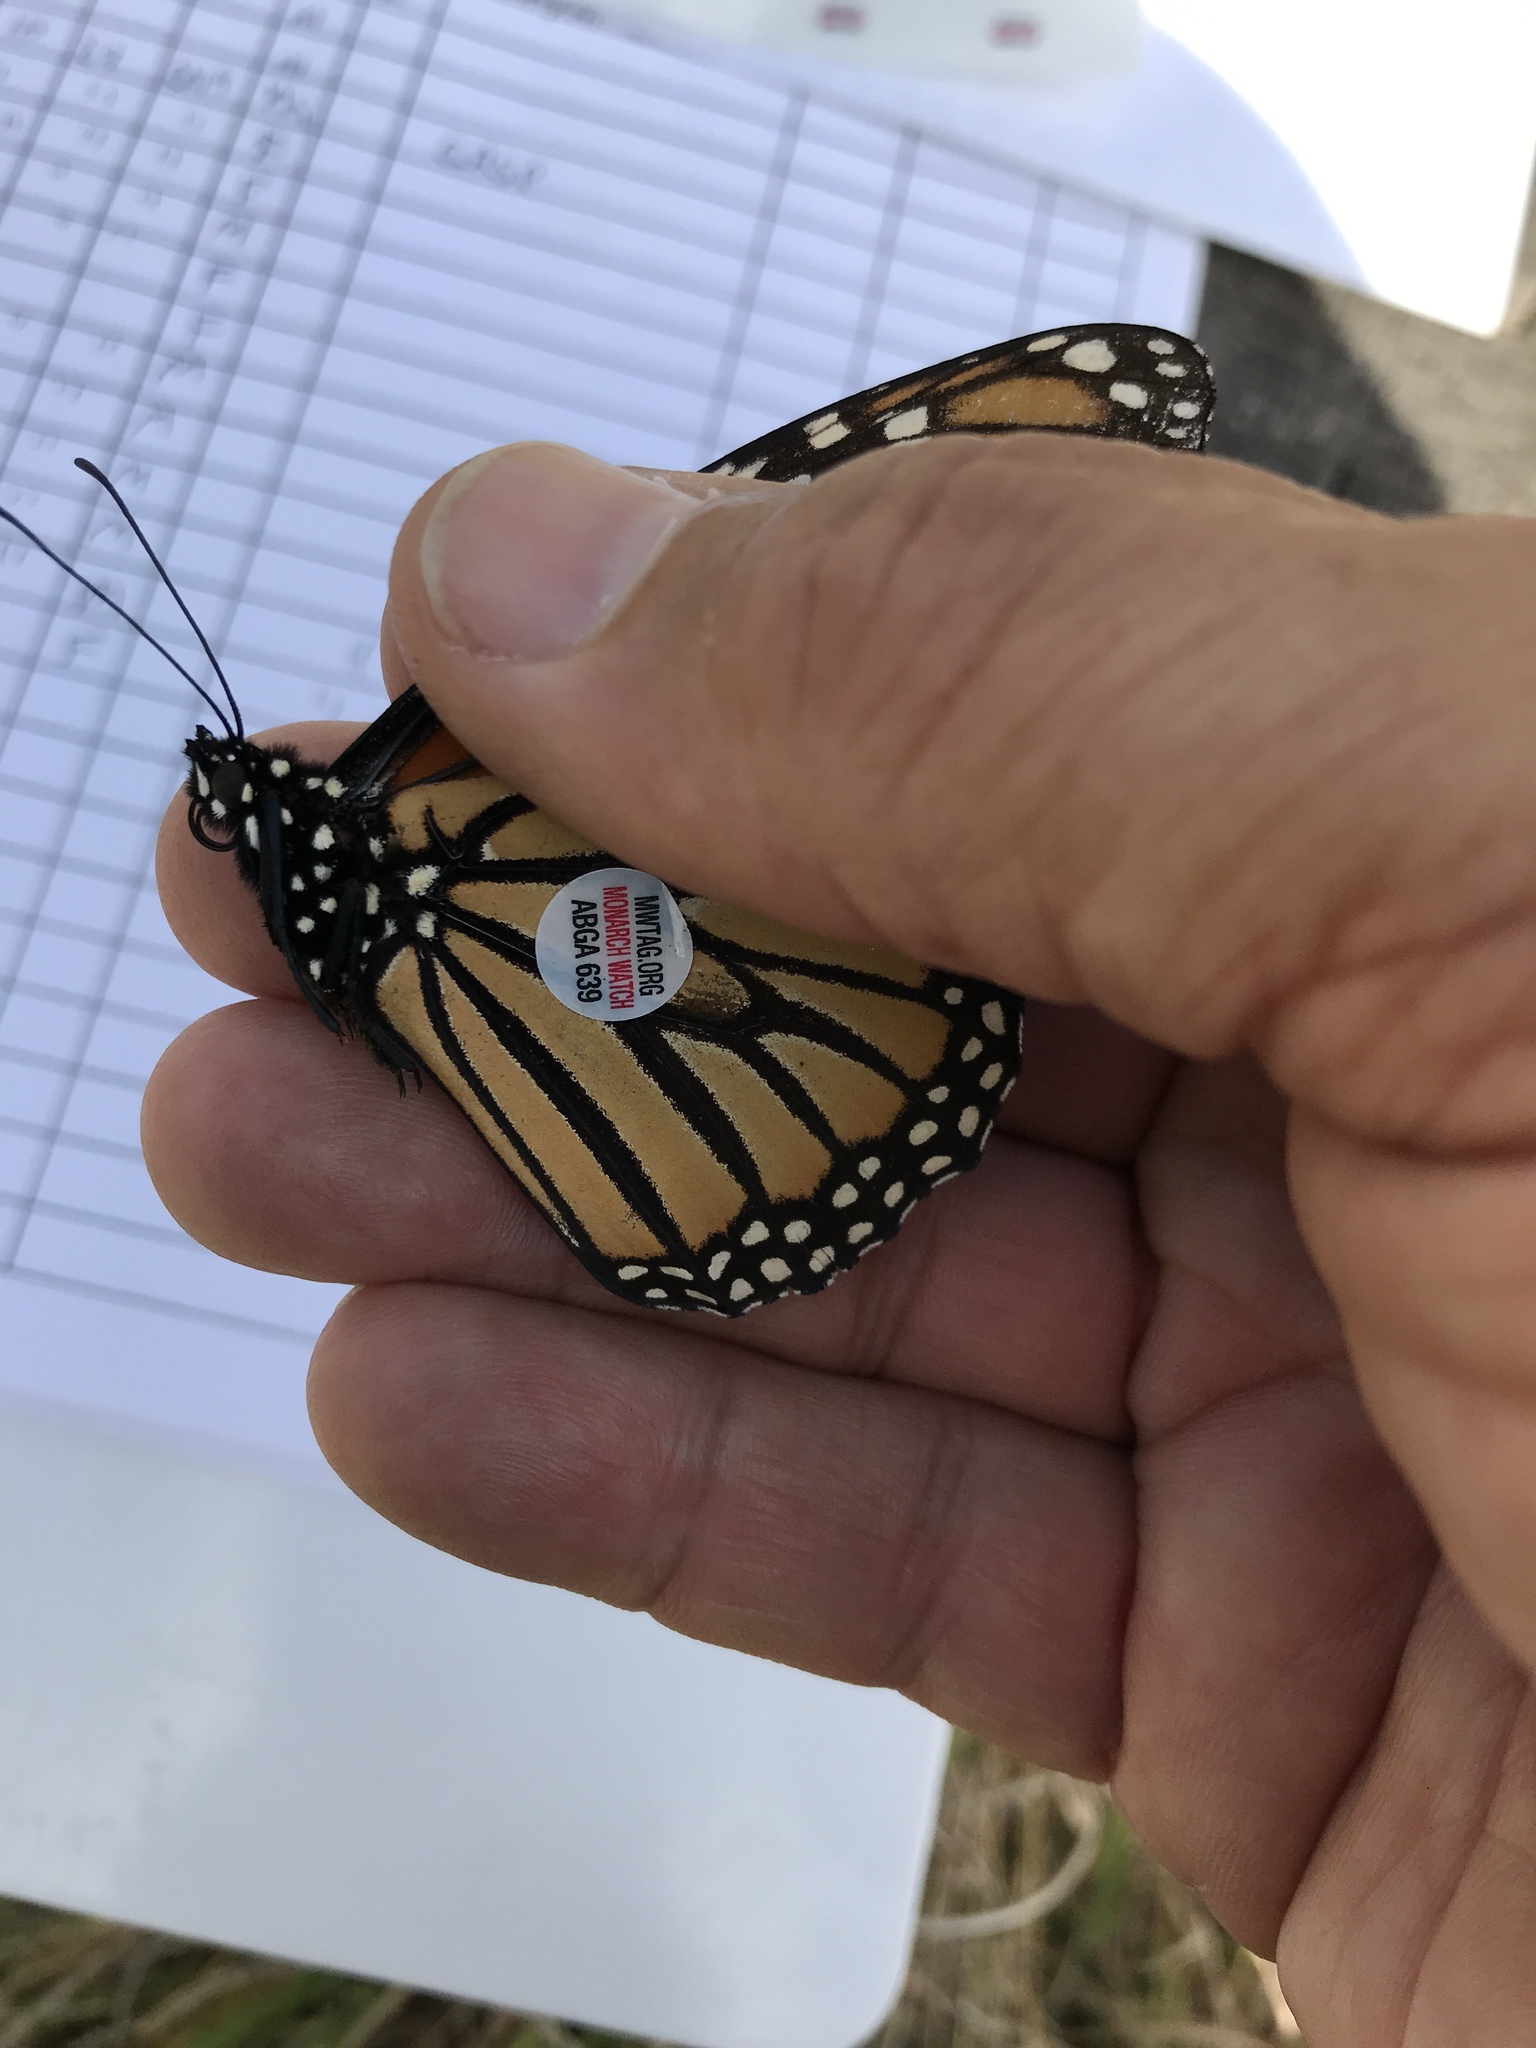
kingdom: Animalia
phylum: Arthropoda
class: Insecta
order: Lepidoptera
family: Nymphalidae
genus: Danaus
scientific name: Danaus plexippus
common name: Monarch
